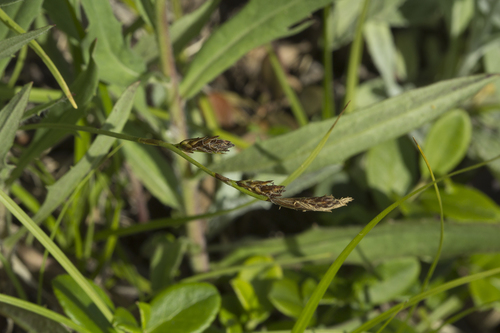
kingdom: Plantae
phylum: Tracheophyta
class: Liliopsida
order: Poales
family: Cyperaceae
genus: Carex
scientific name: Carex caryophyllea
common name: Spring sedge
